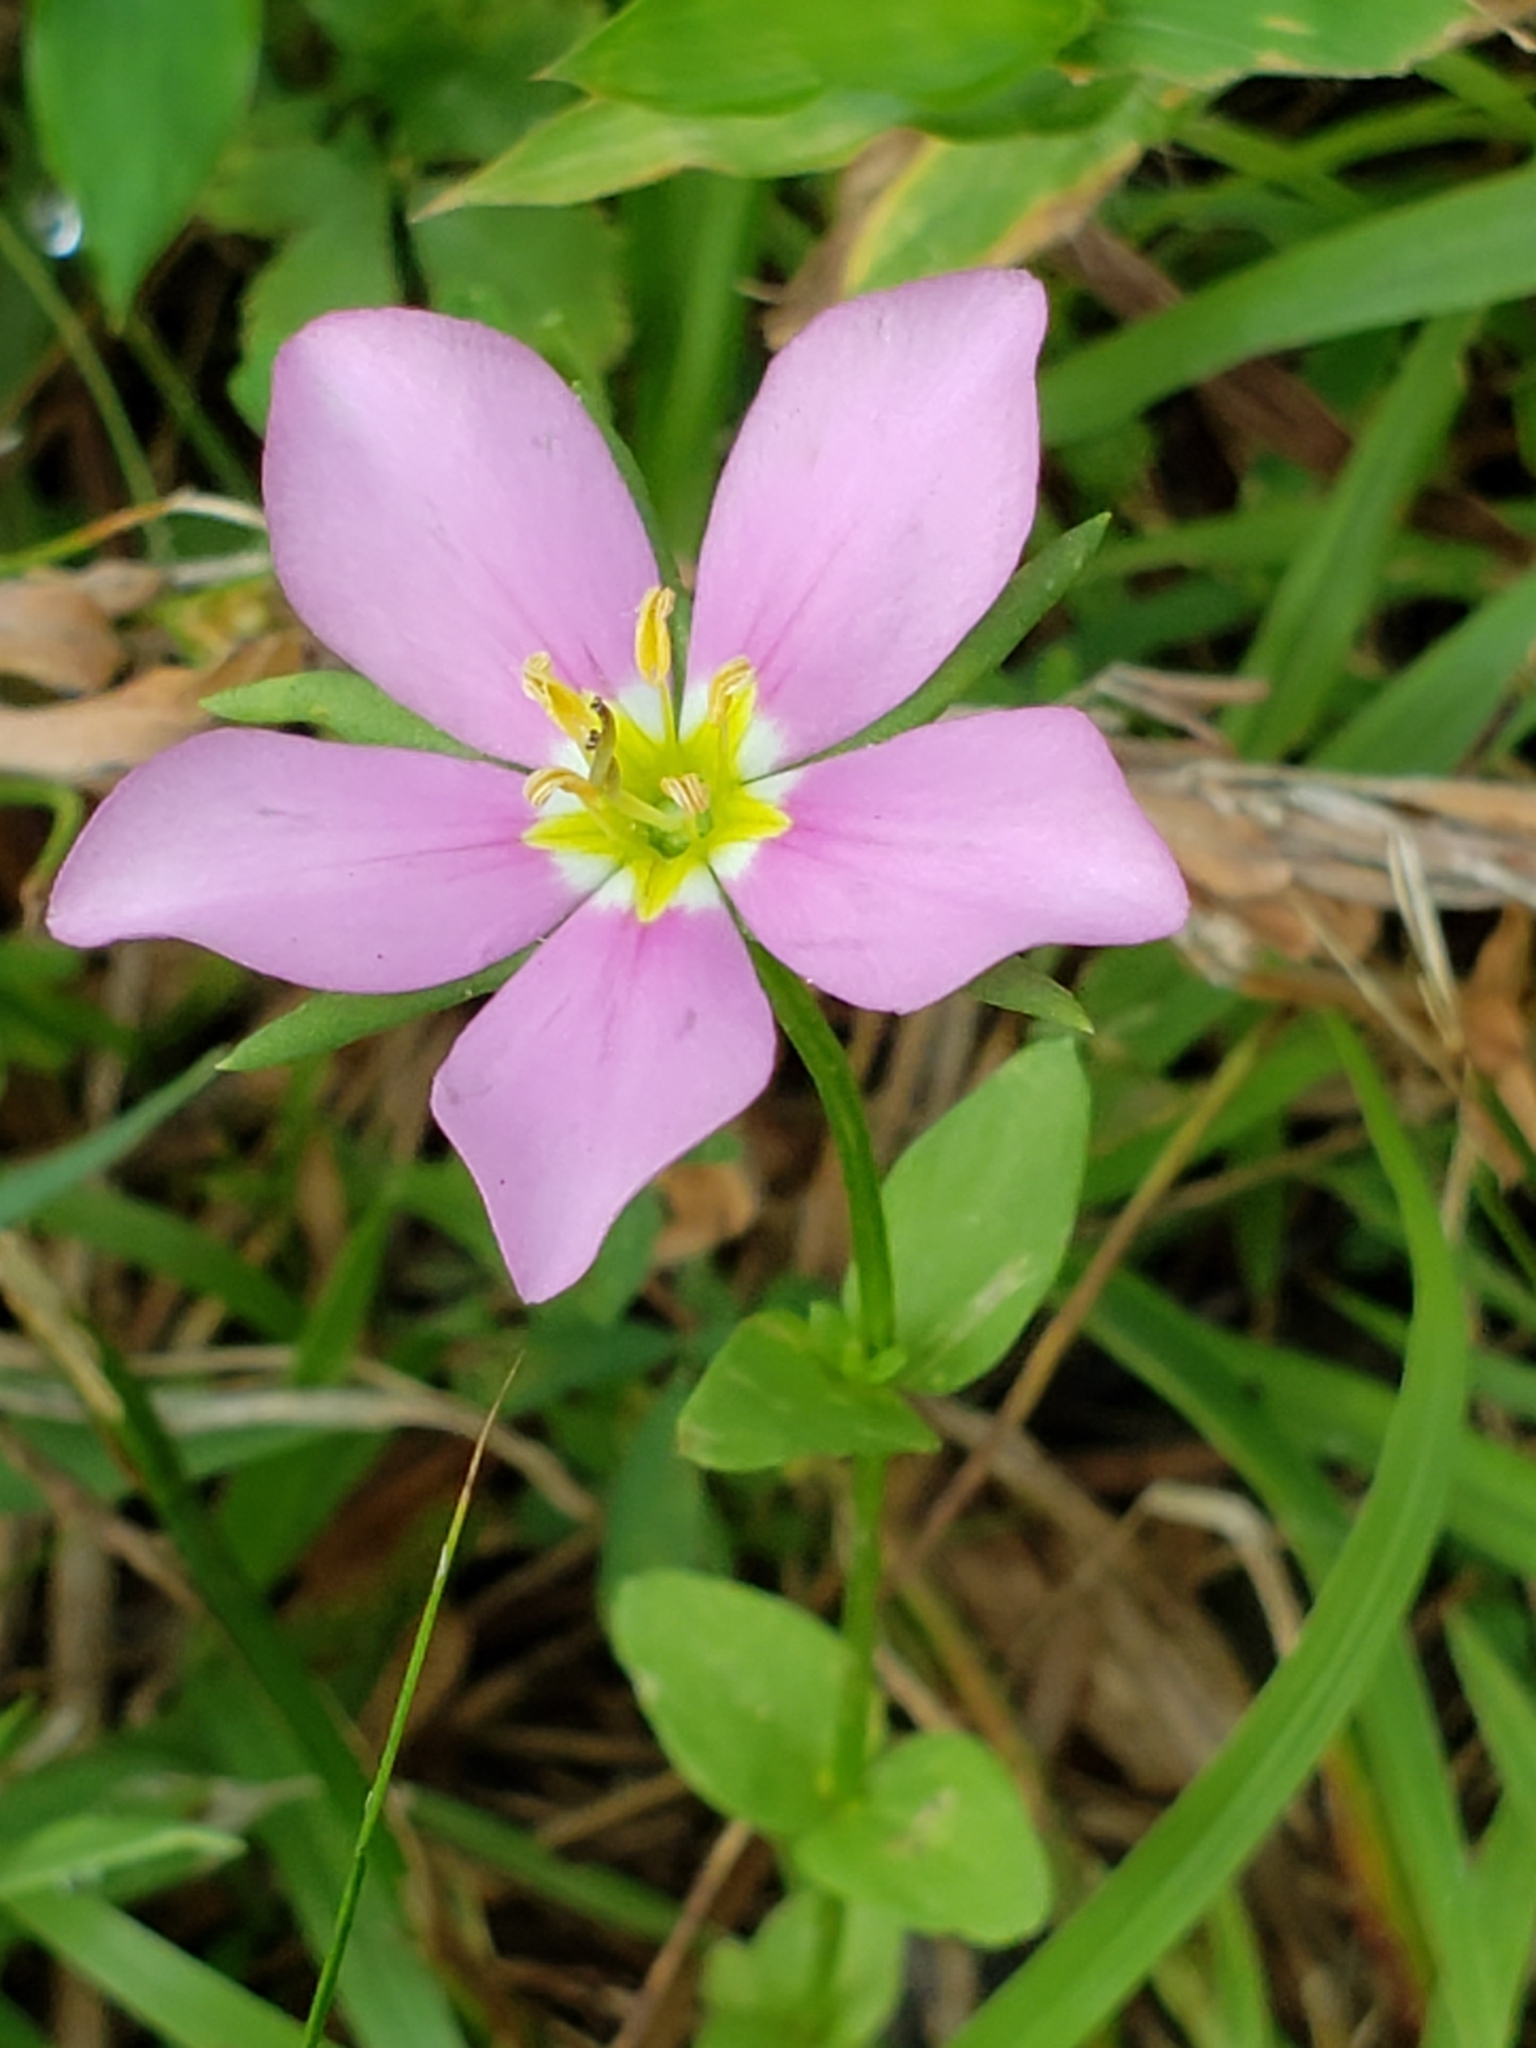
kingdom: Plantae
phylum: Tracheophyta
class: Magnoliopsida
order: Gentianales
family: Gentianaceae
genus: Sabatia
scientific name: Sabatia campestris
